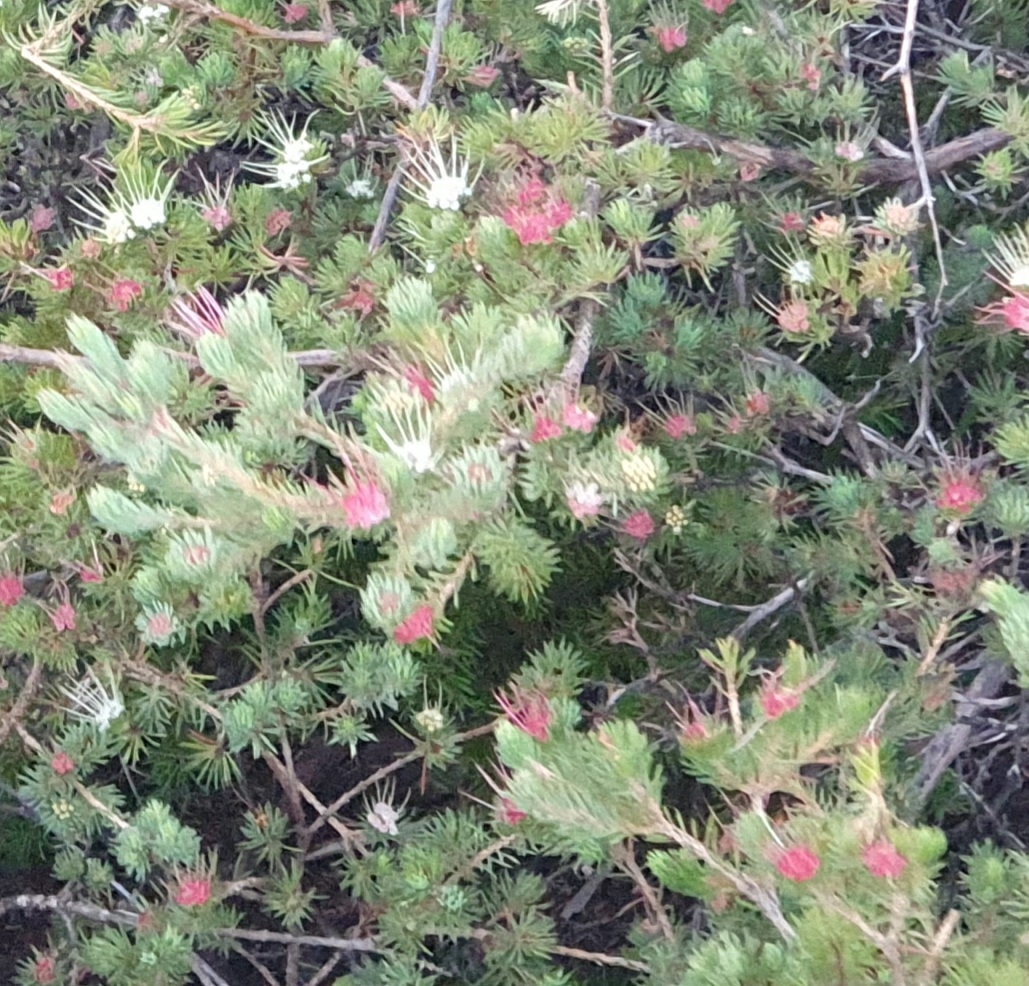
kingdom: Plantae
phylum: Tracheophyta
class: Magnoliopsida
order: Myrtales
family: Myrtaceae
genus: Darwinia
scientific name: Darwinia fascicularis
